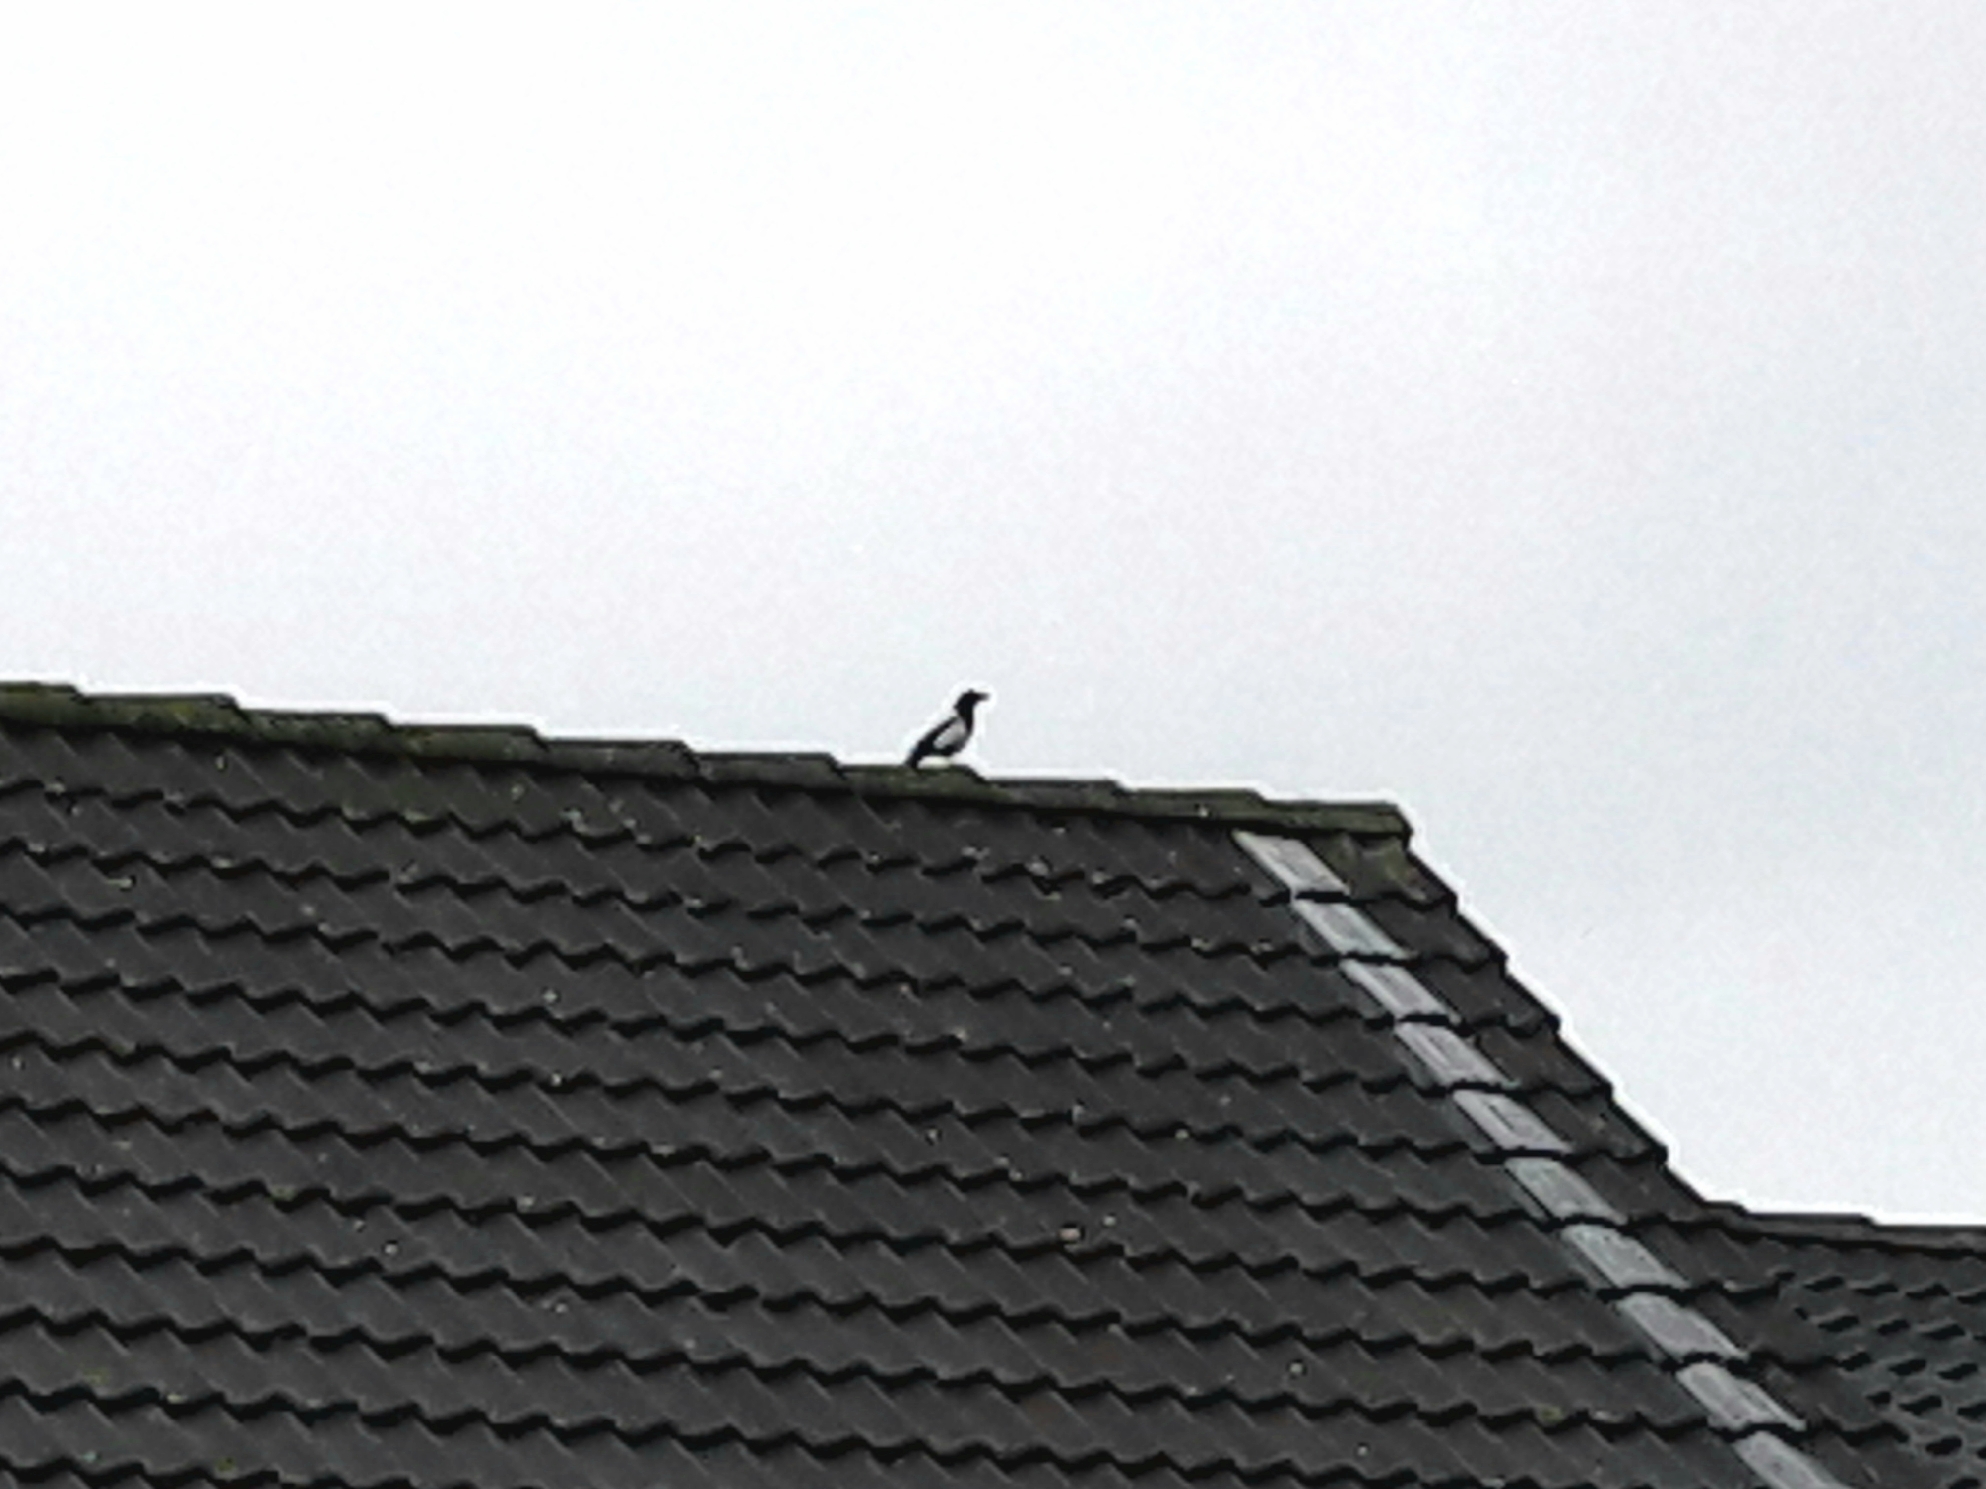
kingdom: Animalia
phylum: Chordata
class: Aves
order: Passeriformes
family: Corvidae
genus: Pica
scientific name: Pica pica
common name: Eurasian magpie
